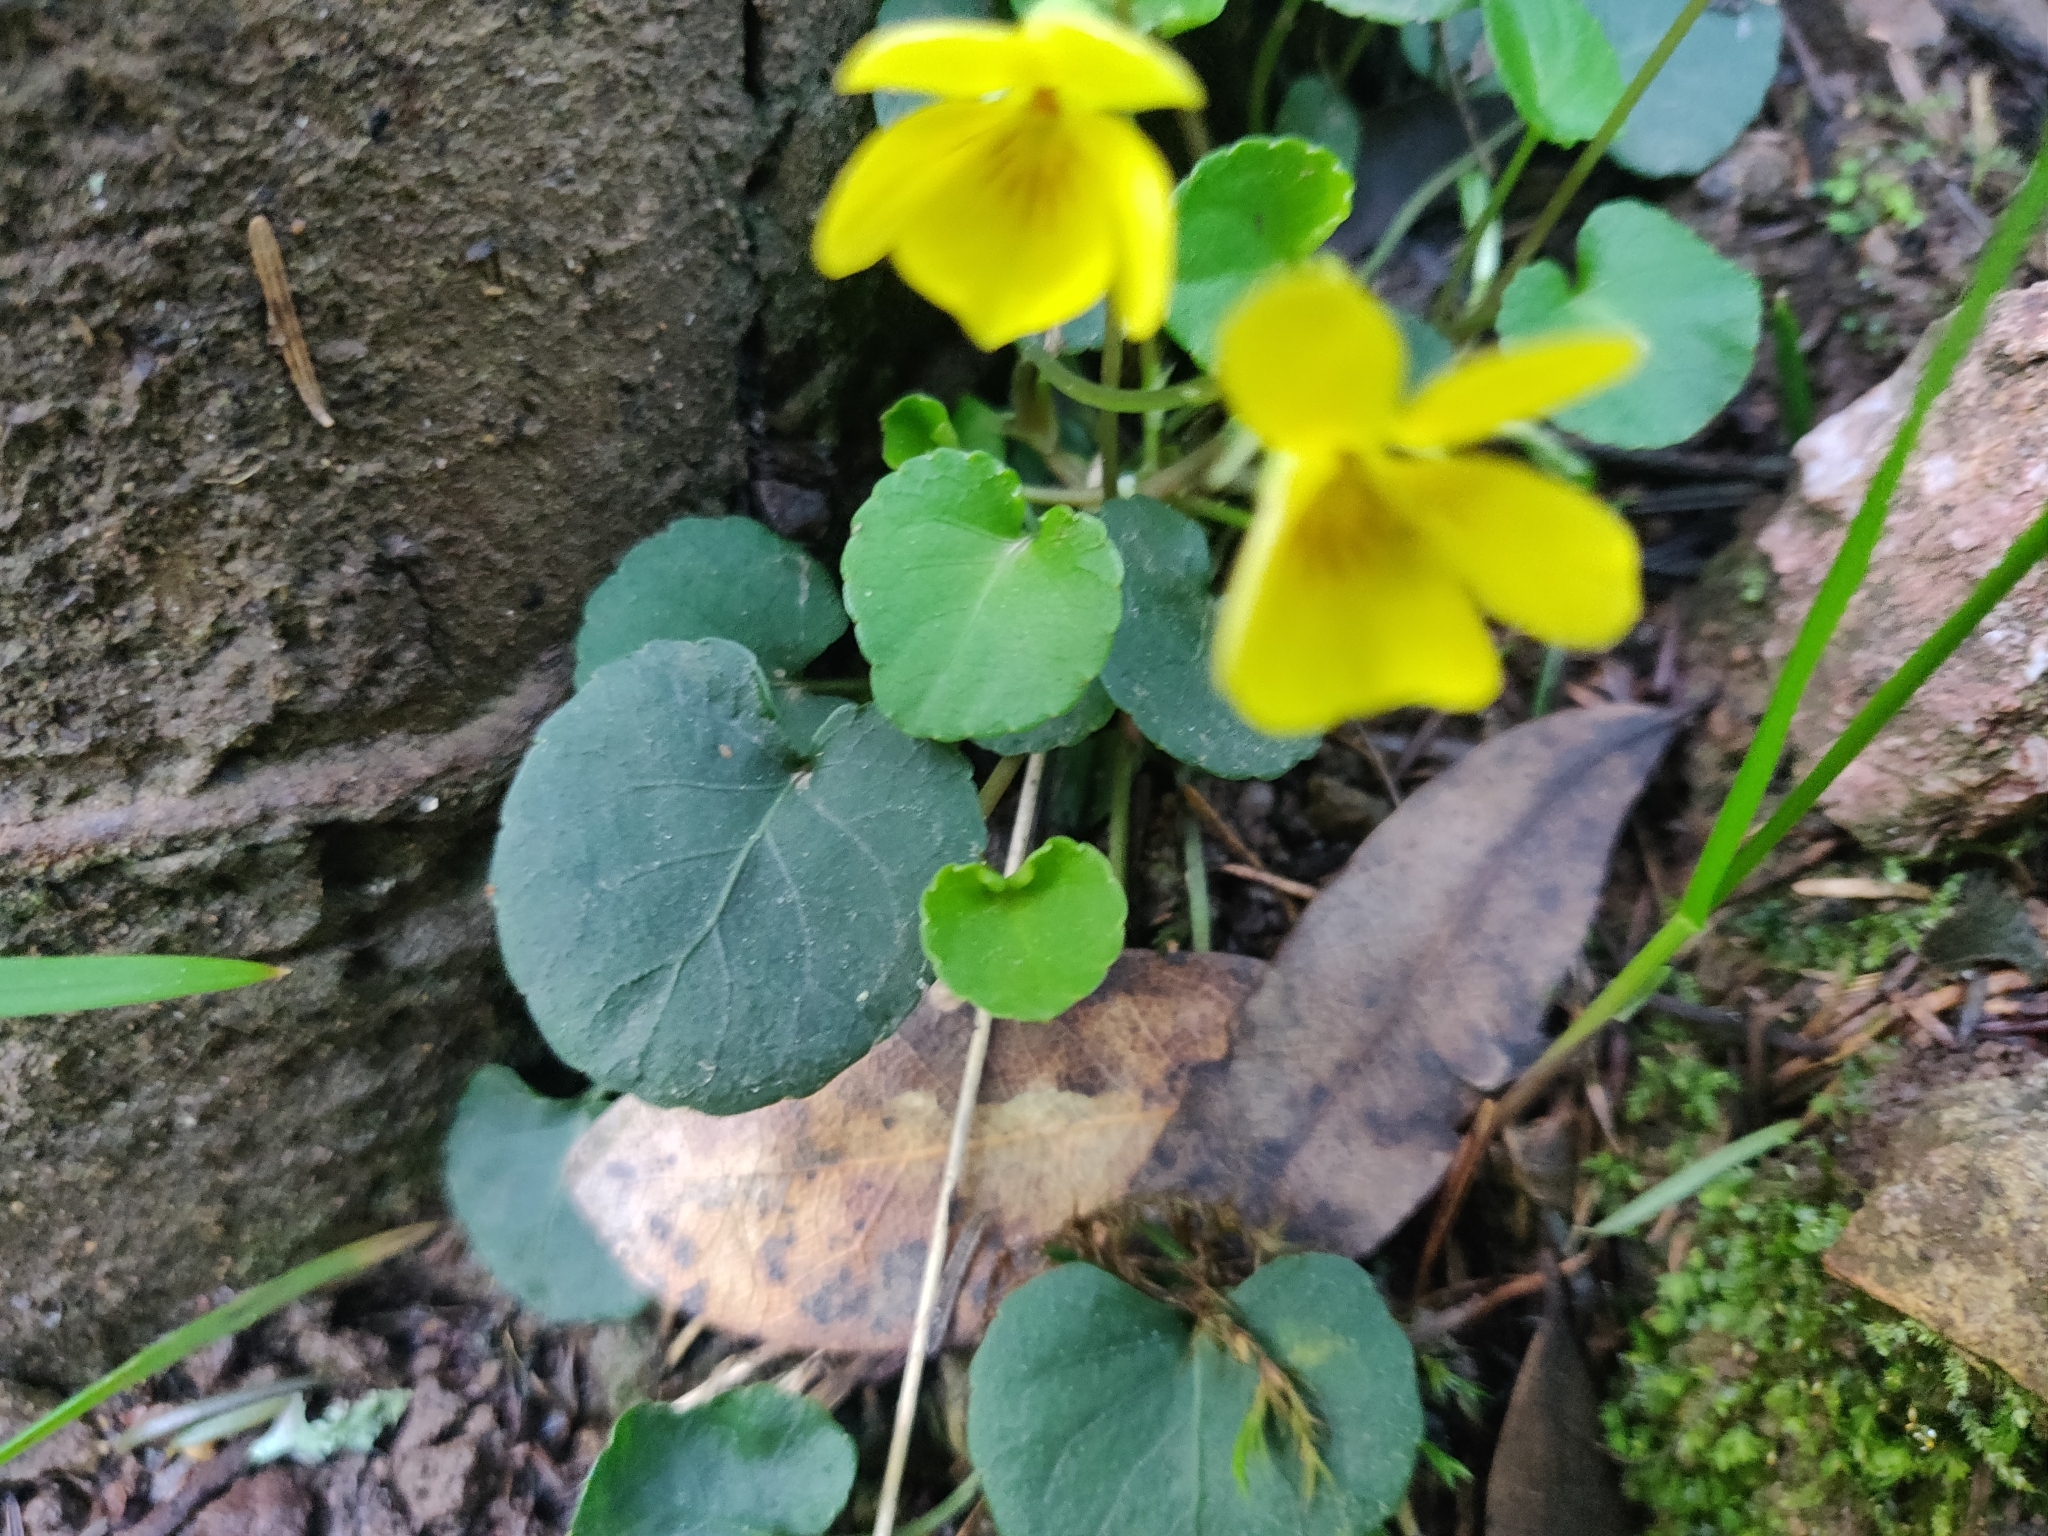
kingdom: Plantae
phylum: Tracheophyta
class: Magnoliopsida
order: Malpighiales
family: Violaceae
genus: Viola
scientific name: Viola sempervirens
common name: Evergreen violet
